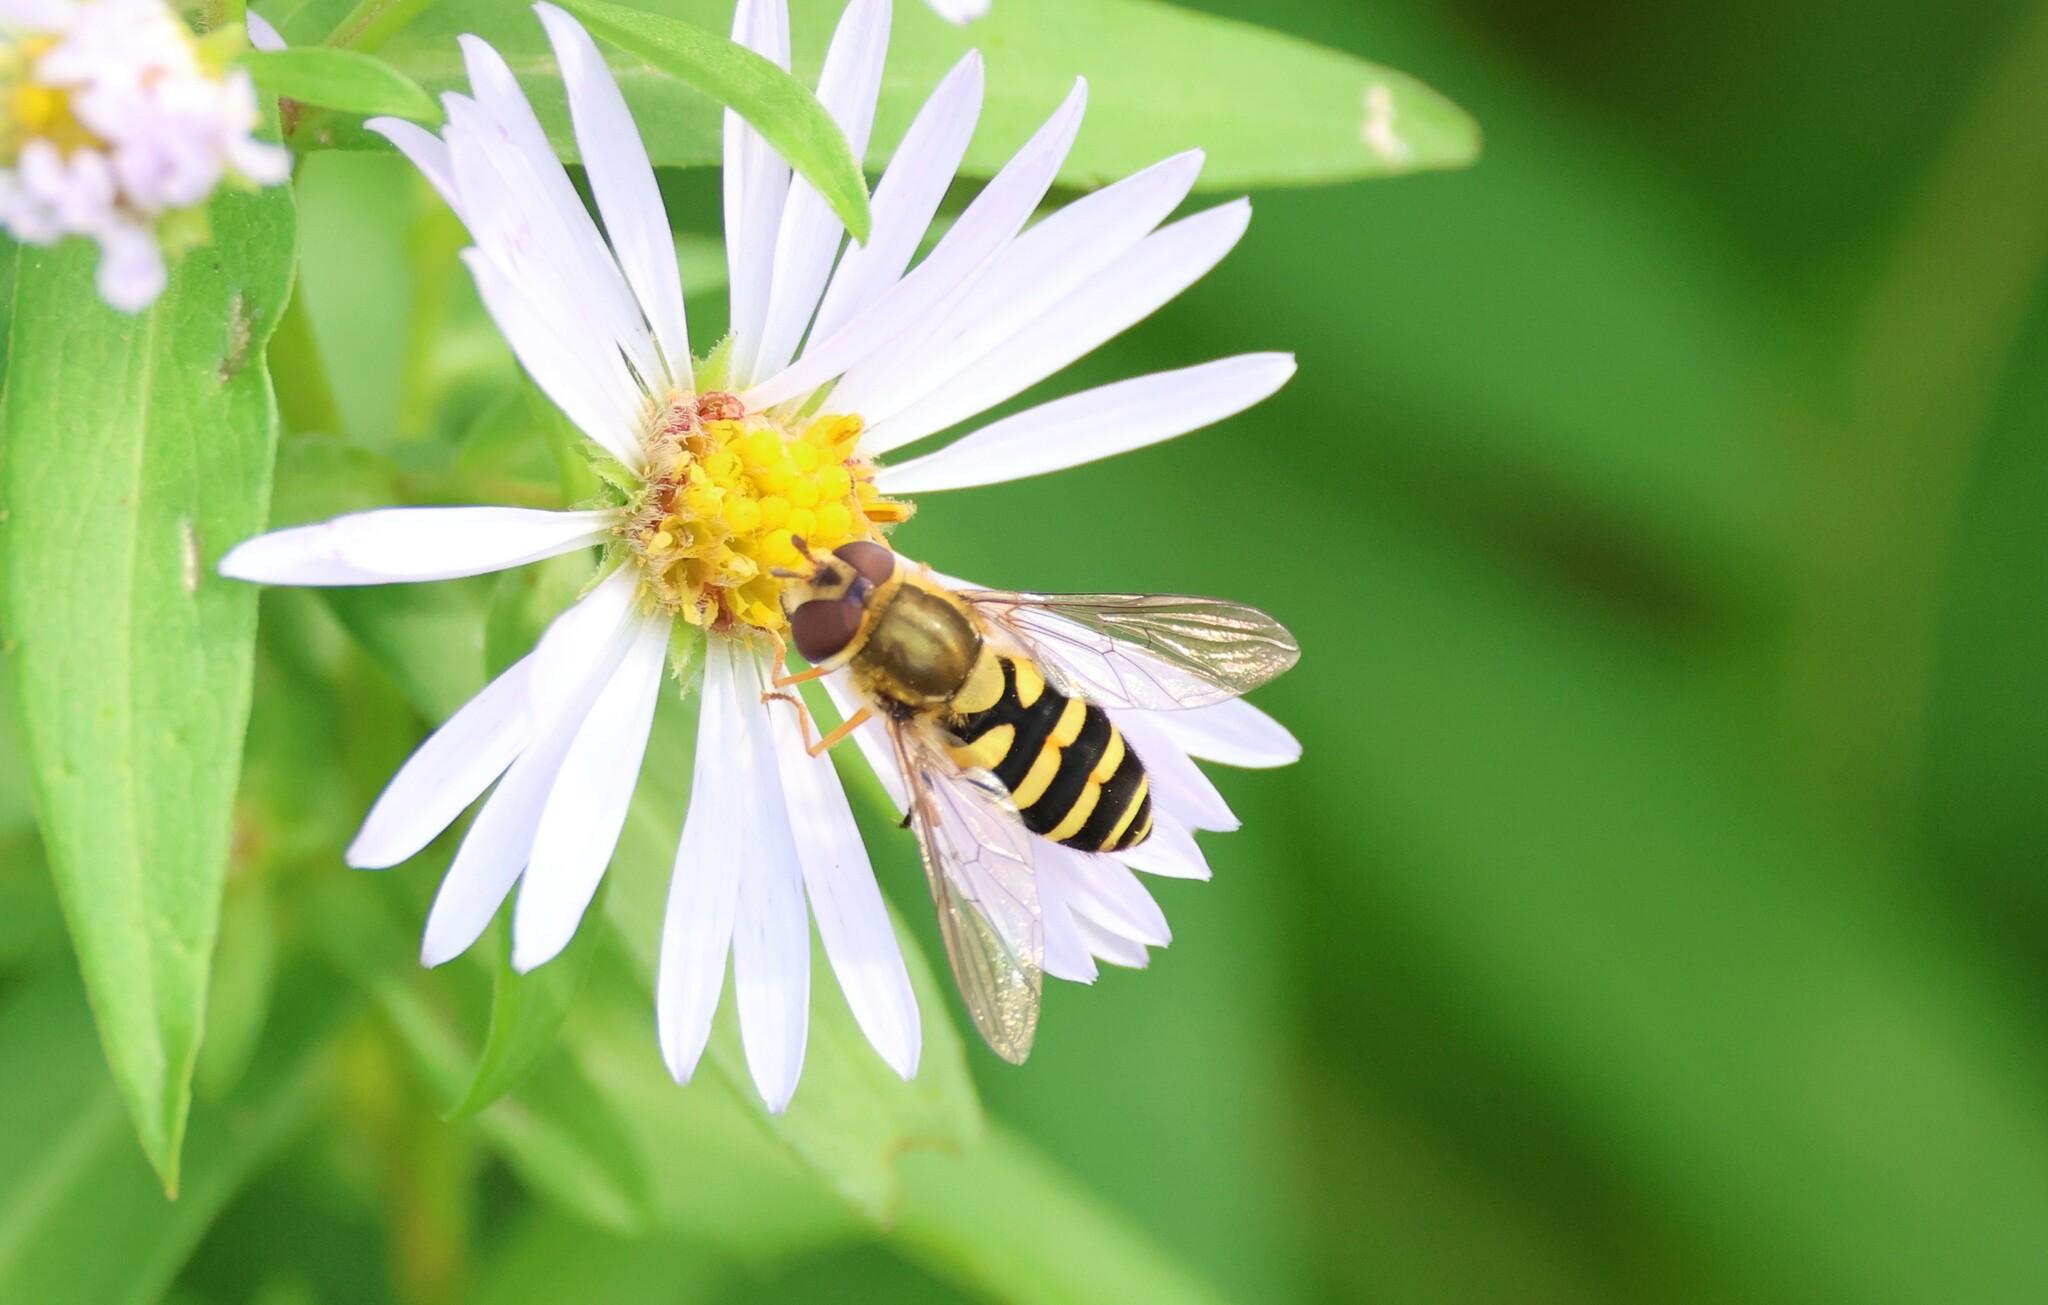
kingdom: Animalia
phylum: Arthropoda
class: Insecta
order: Diptera
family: Syrphidae
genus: Syrphus
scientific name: Syrphus ribesii
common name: Common flower fly
